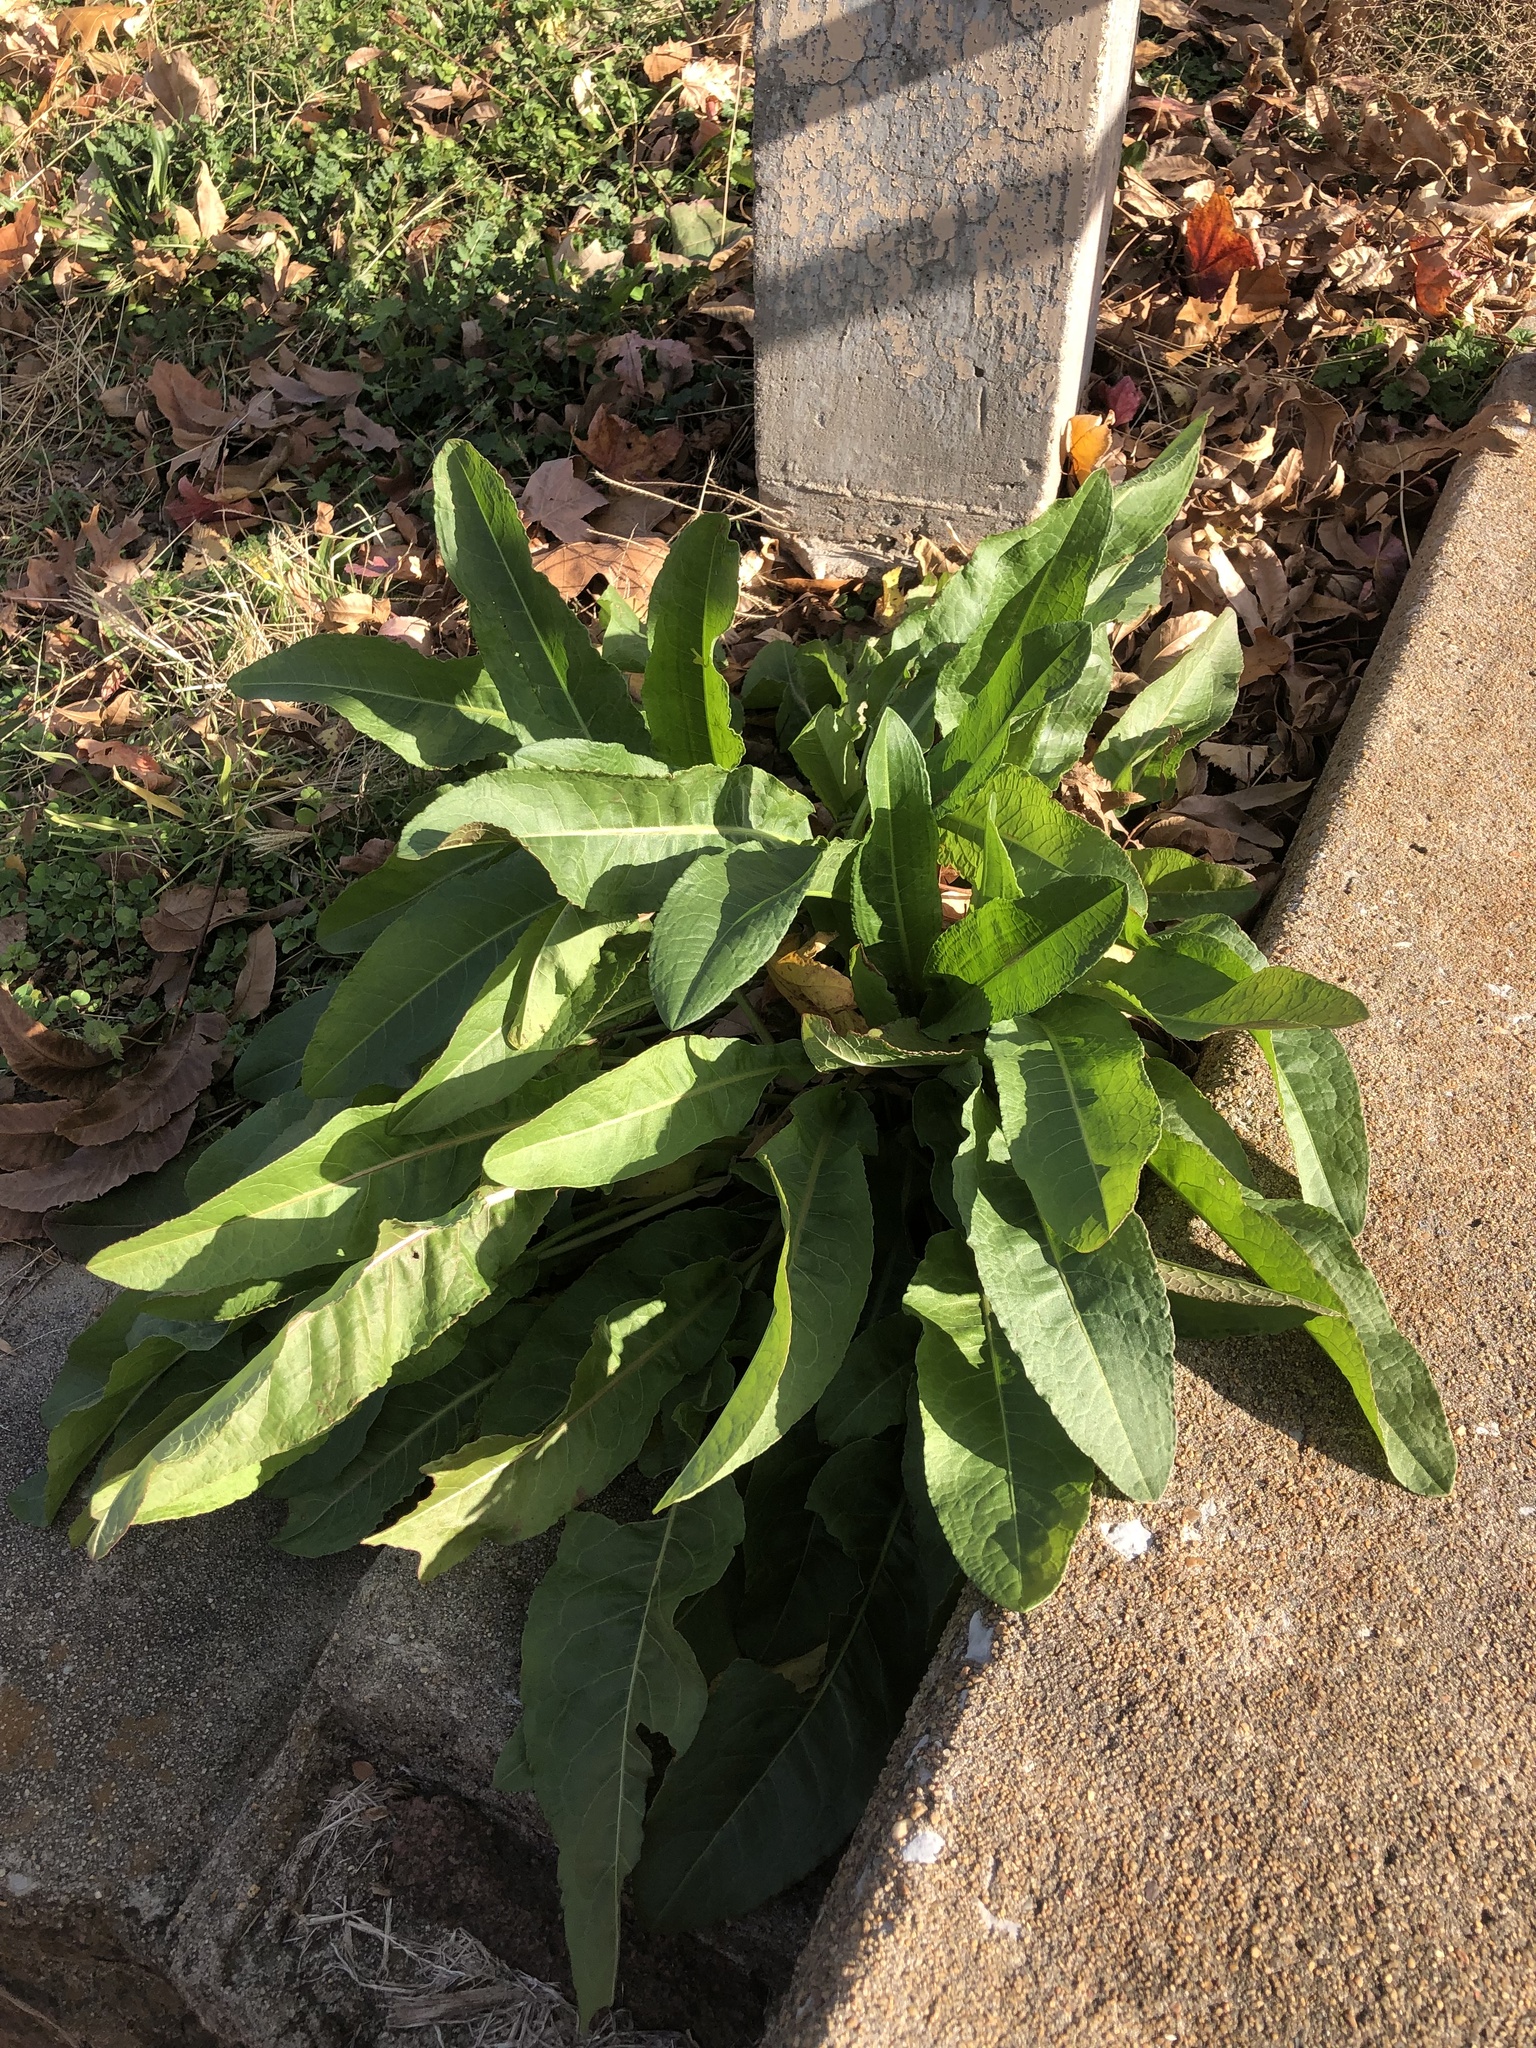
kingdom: Plantae
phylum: Tracheophyta
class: Magnoliopsida
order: Caryophyllales
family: Polygonaceae
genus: Rumex
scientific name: Rumex crispus
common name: Curled dock
